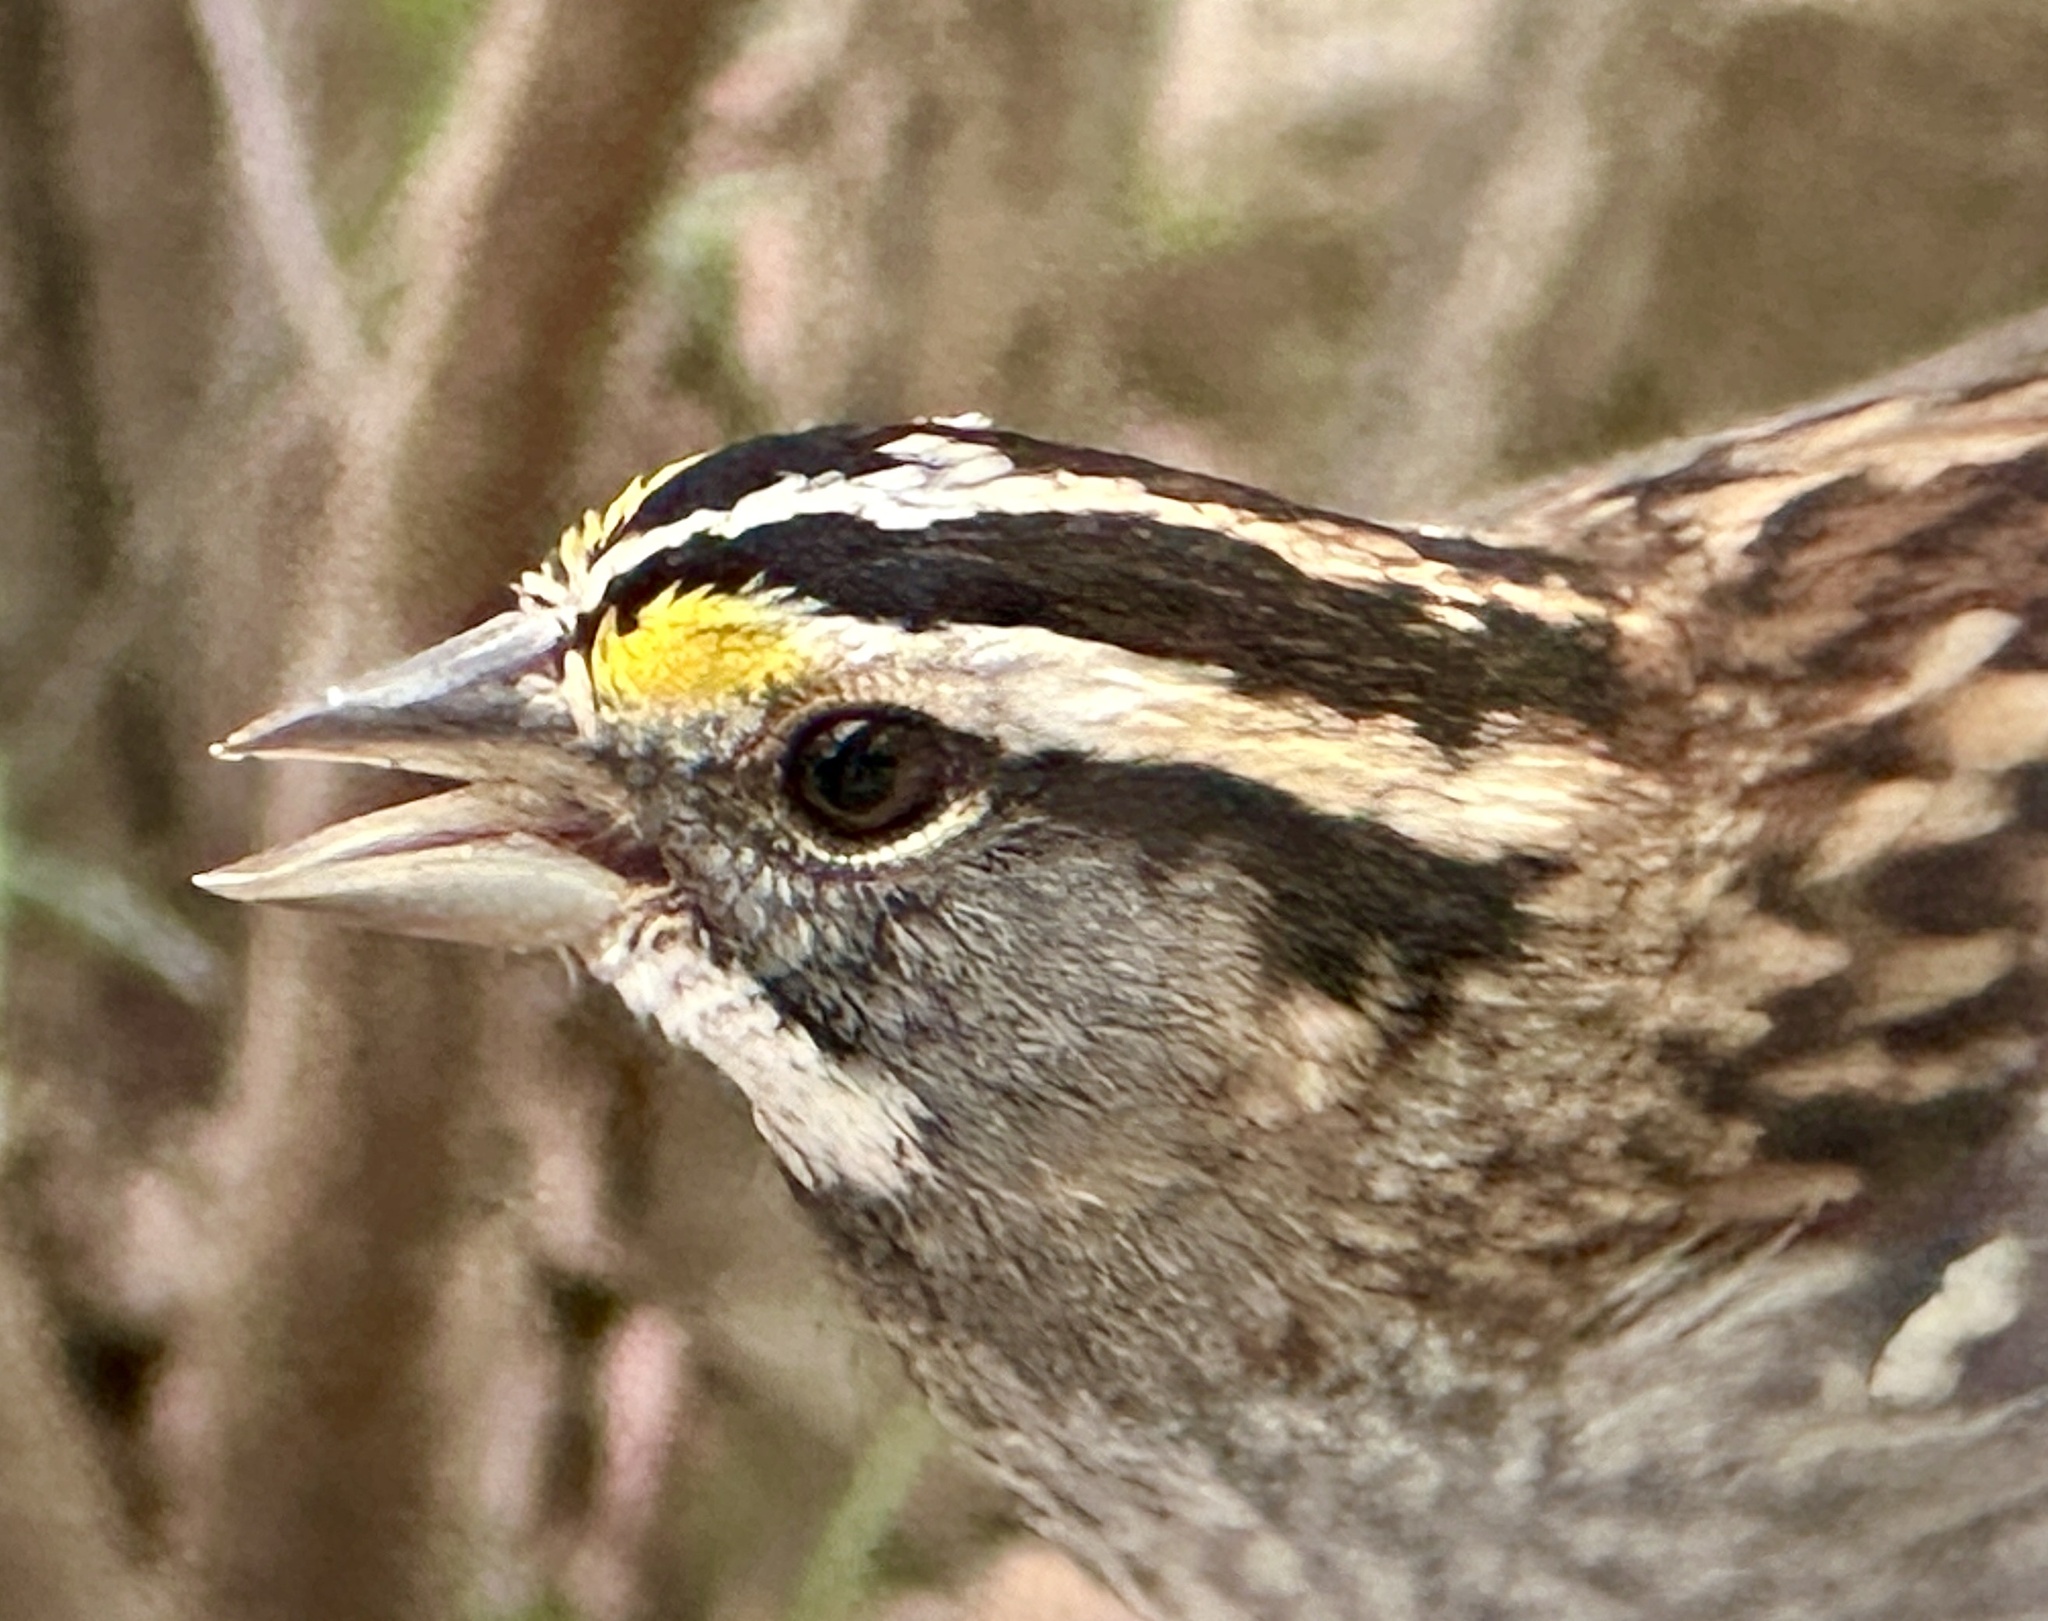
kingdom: Animalia
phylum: Chordata
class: Aves
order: Passeriformes
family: Passerellidae
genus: Zonotrichia
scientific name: Zonotrichia albicollis
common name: White-throated sparrow
